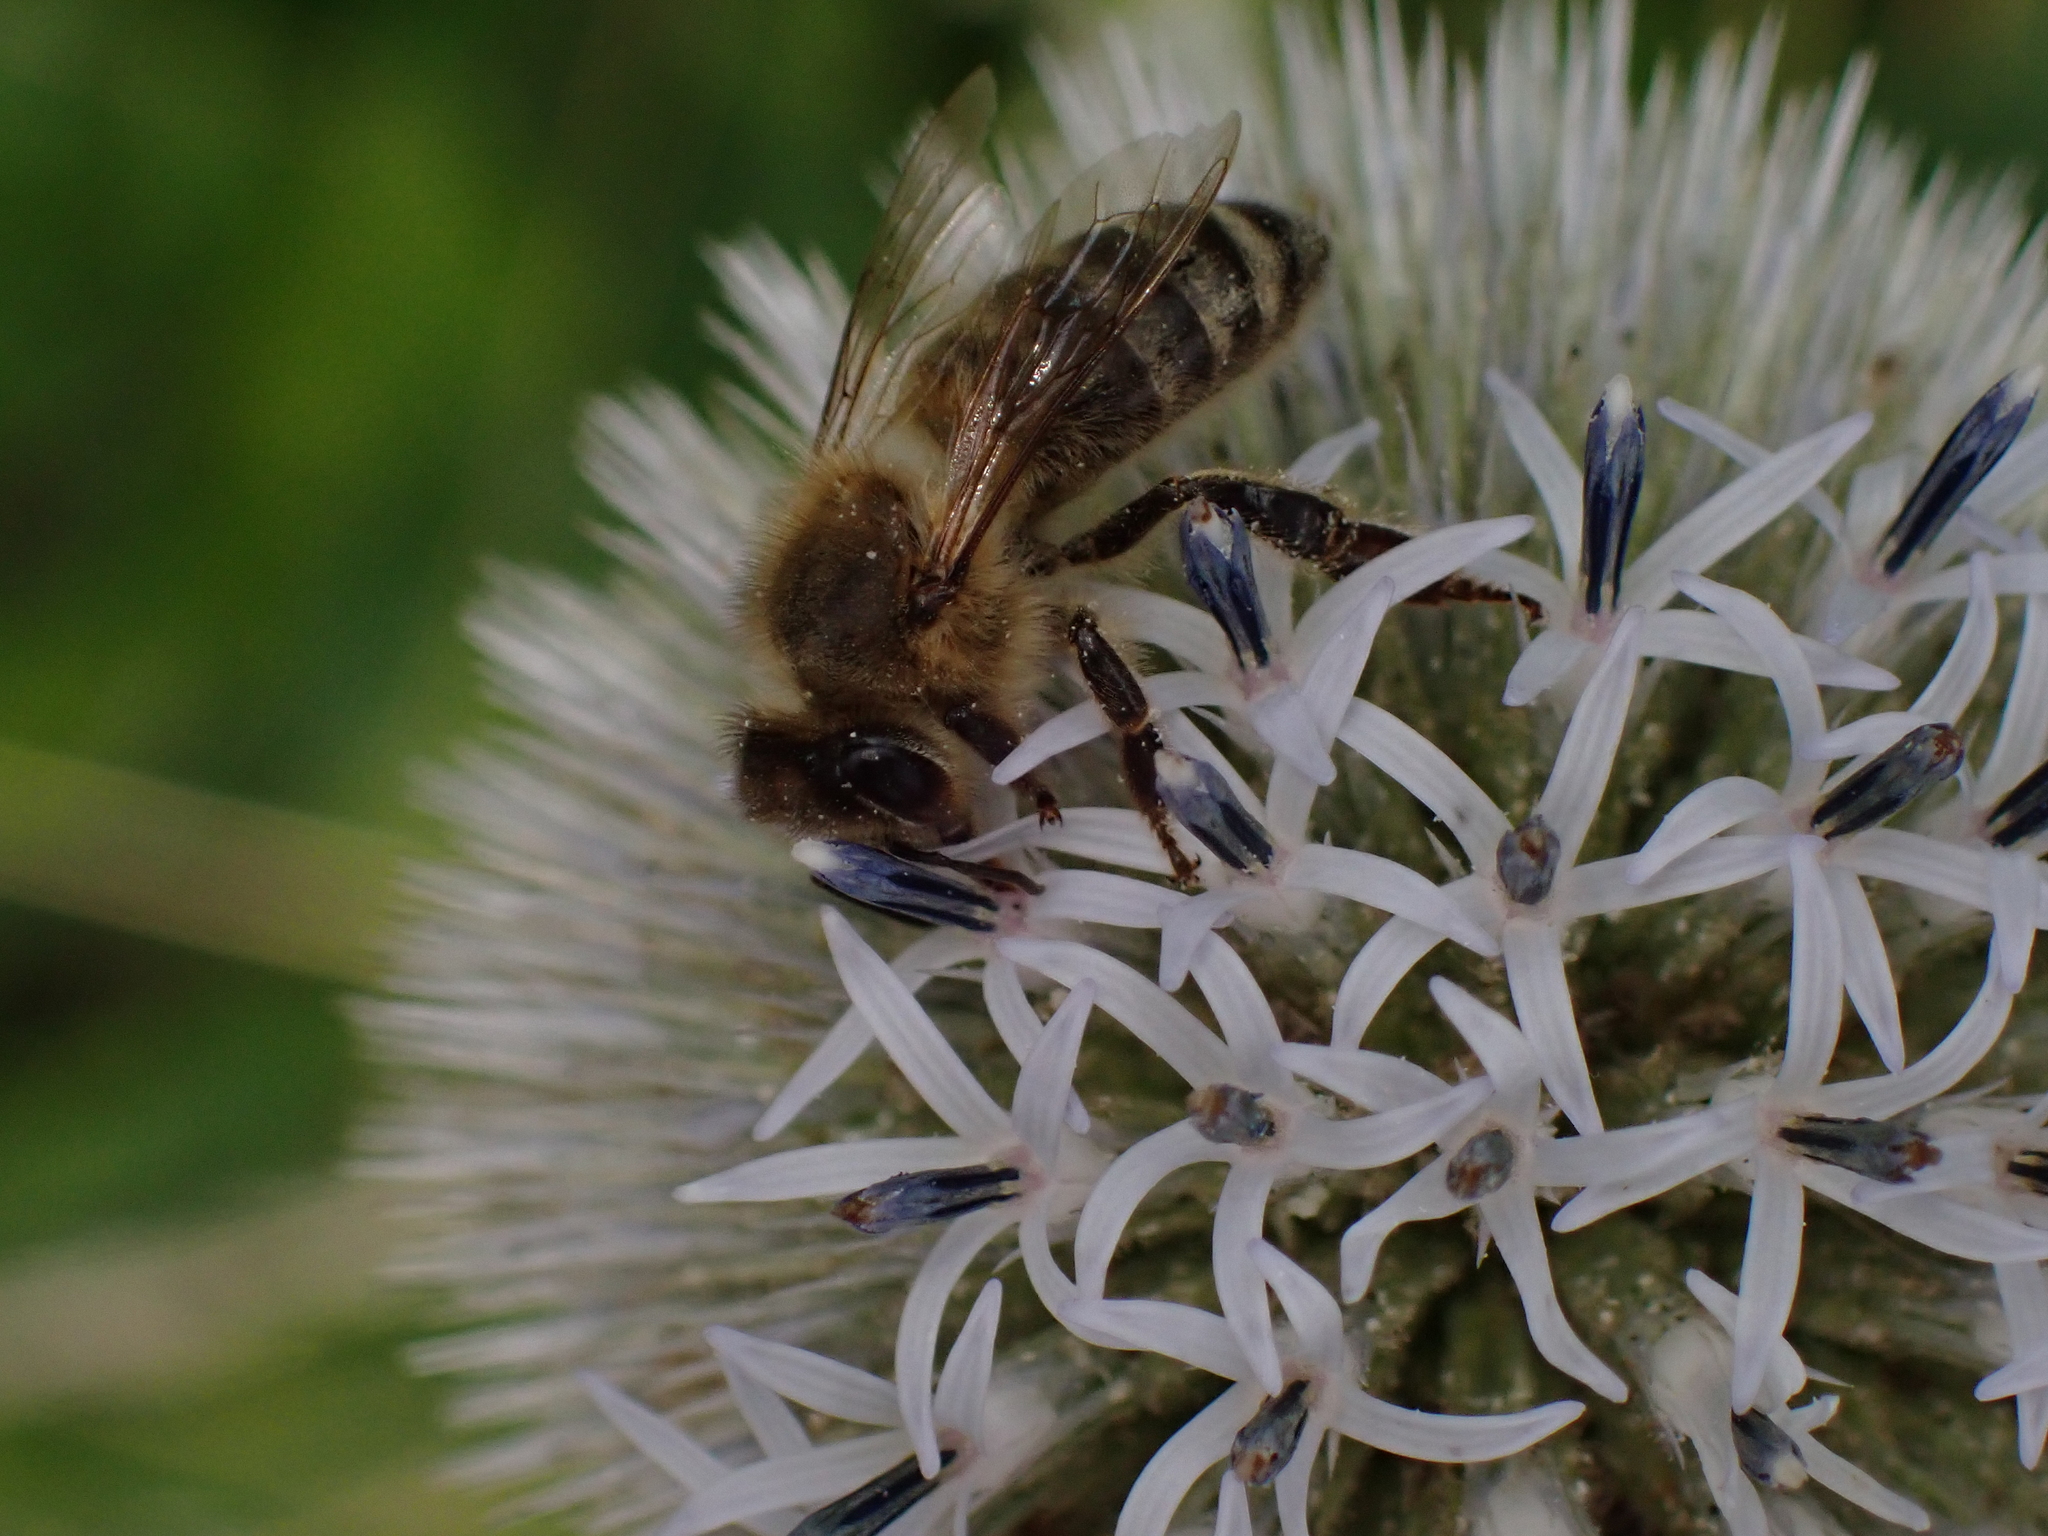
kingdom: Animalia
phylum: Arthropoda
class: Insecta
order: Hymenoptera
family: Apidae
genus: Apis
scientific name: Apis mellifera
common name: Honey bee
